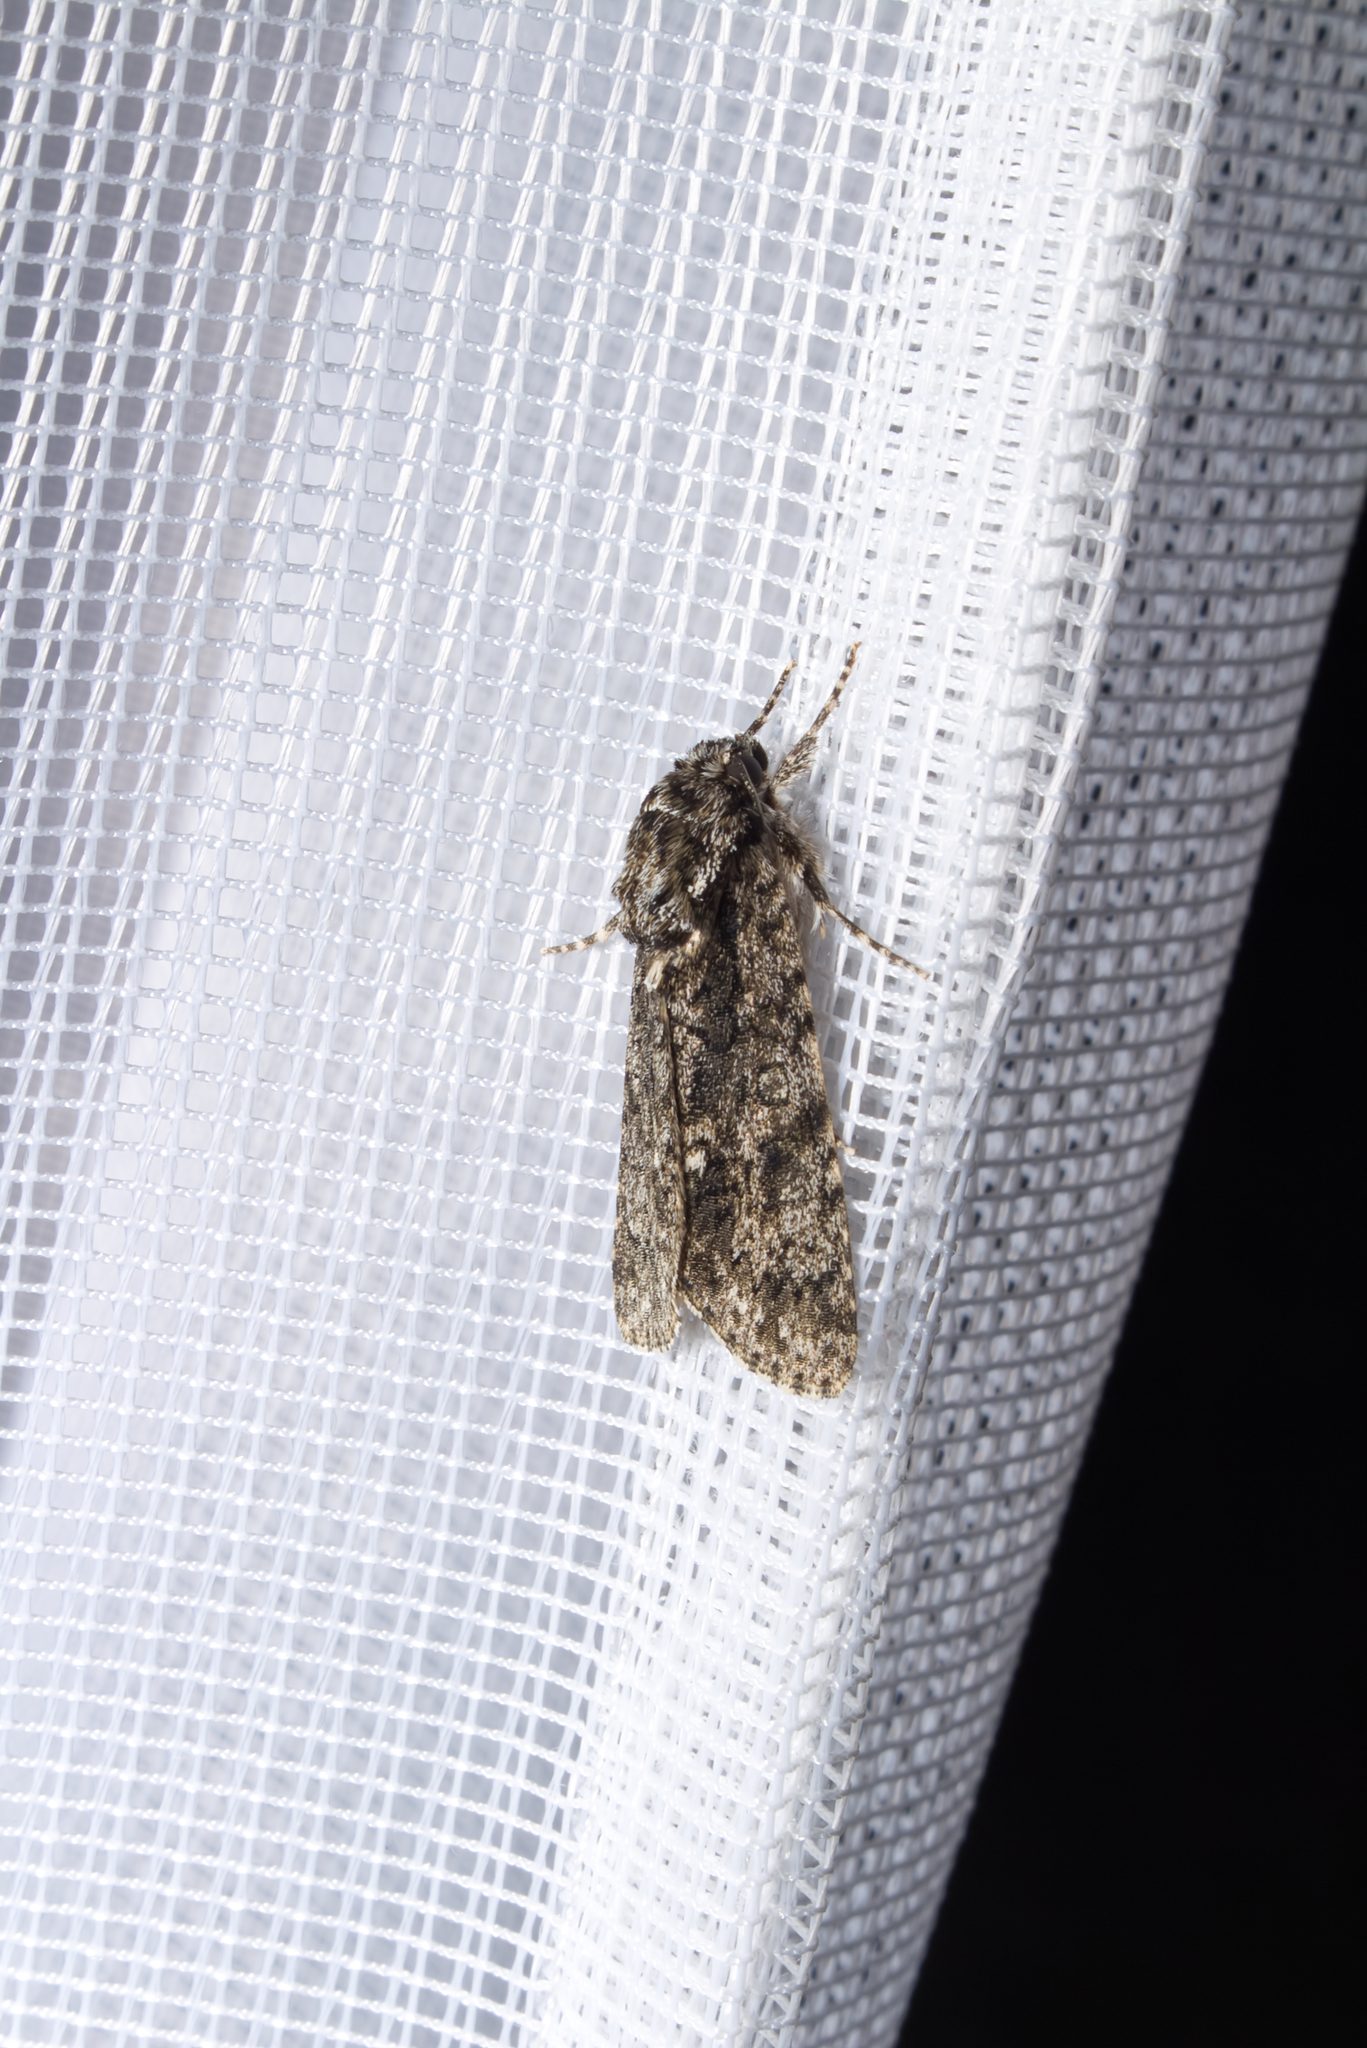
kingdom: Animalia
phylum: Arthropoda
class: Insecta
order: Lepidoptera
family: Noctuidae
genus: Acronicta
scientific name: Acronicta rumicis
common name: Knot grass
